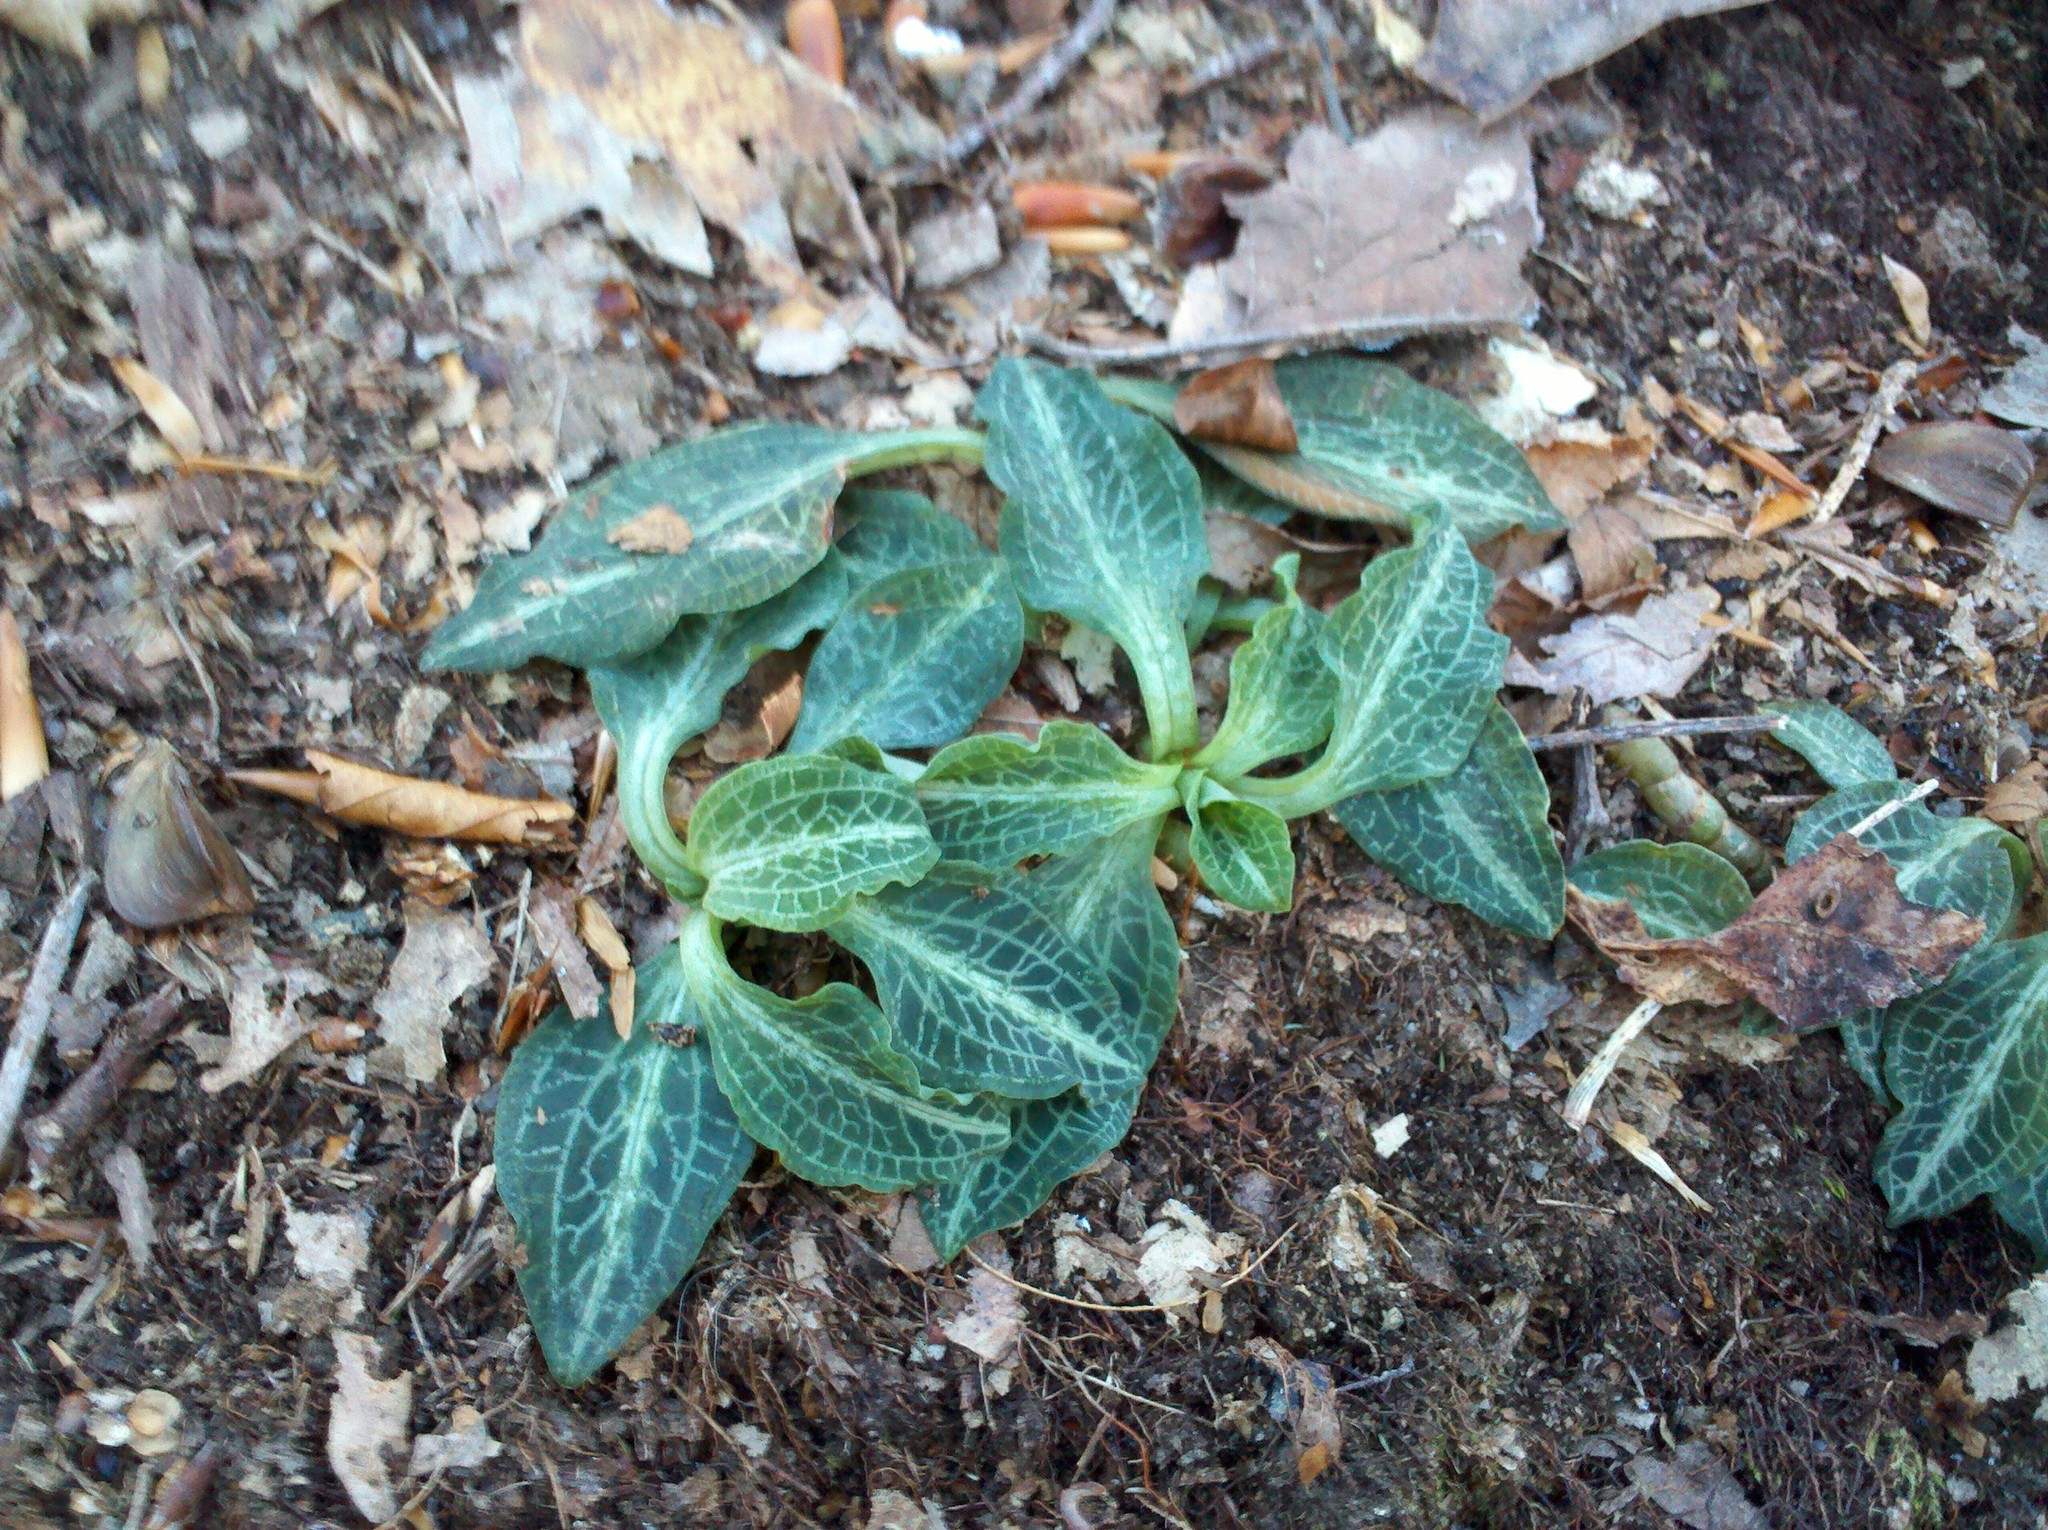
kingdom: Plantae
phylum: Tracheophyta
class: Liliopsida
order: Asparagales
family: Orchidaceae
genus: Goodyera
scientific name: Goodyera pubescens
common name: Downy rattlesnake-plantain
